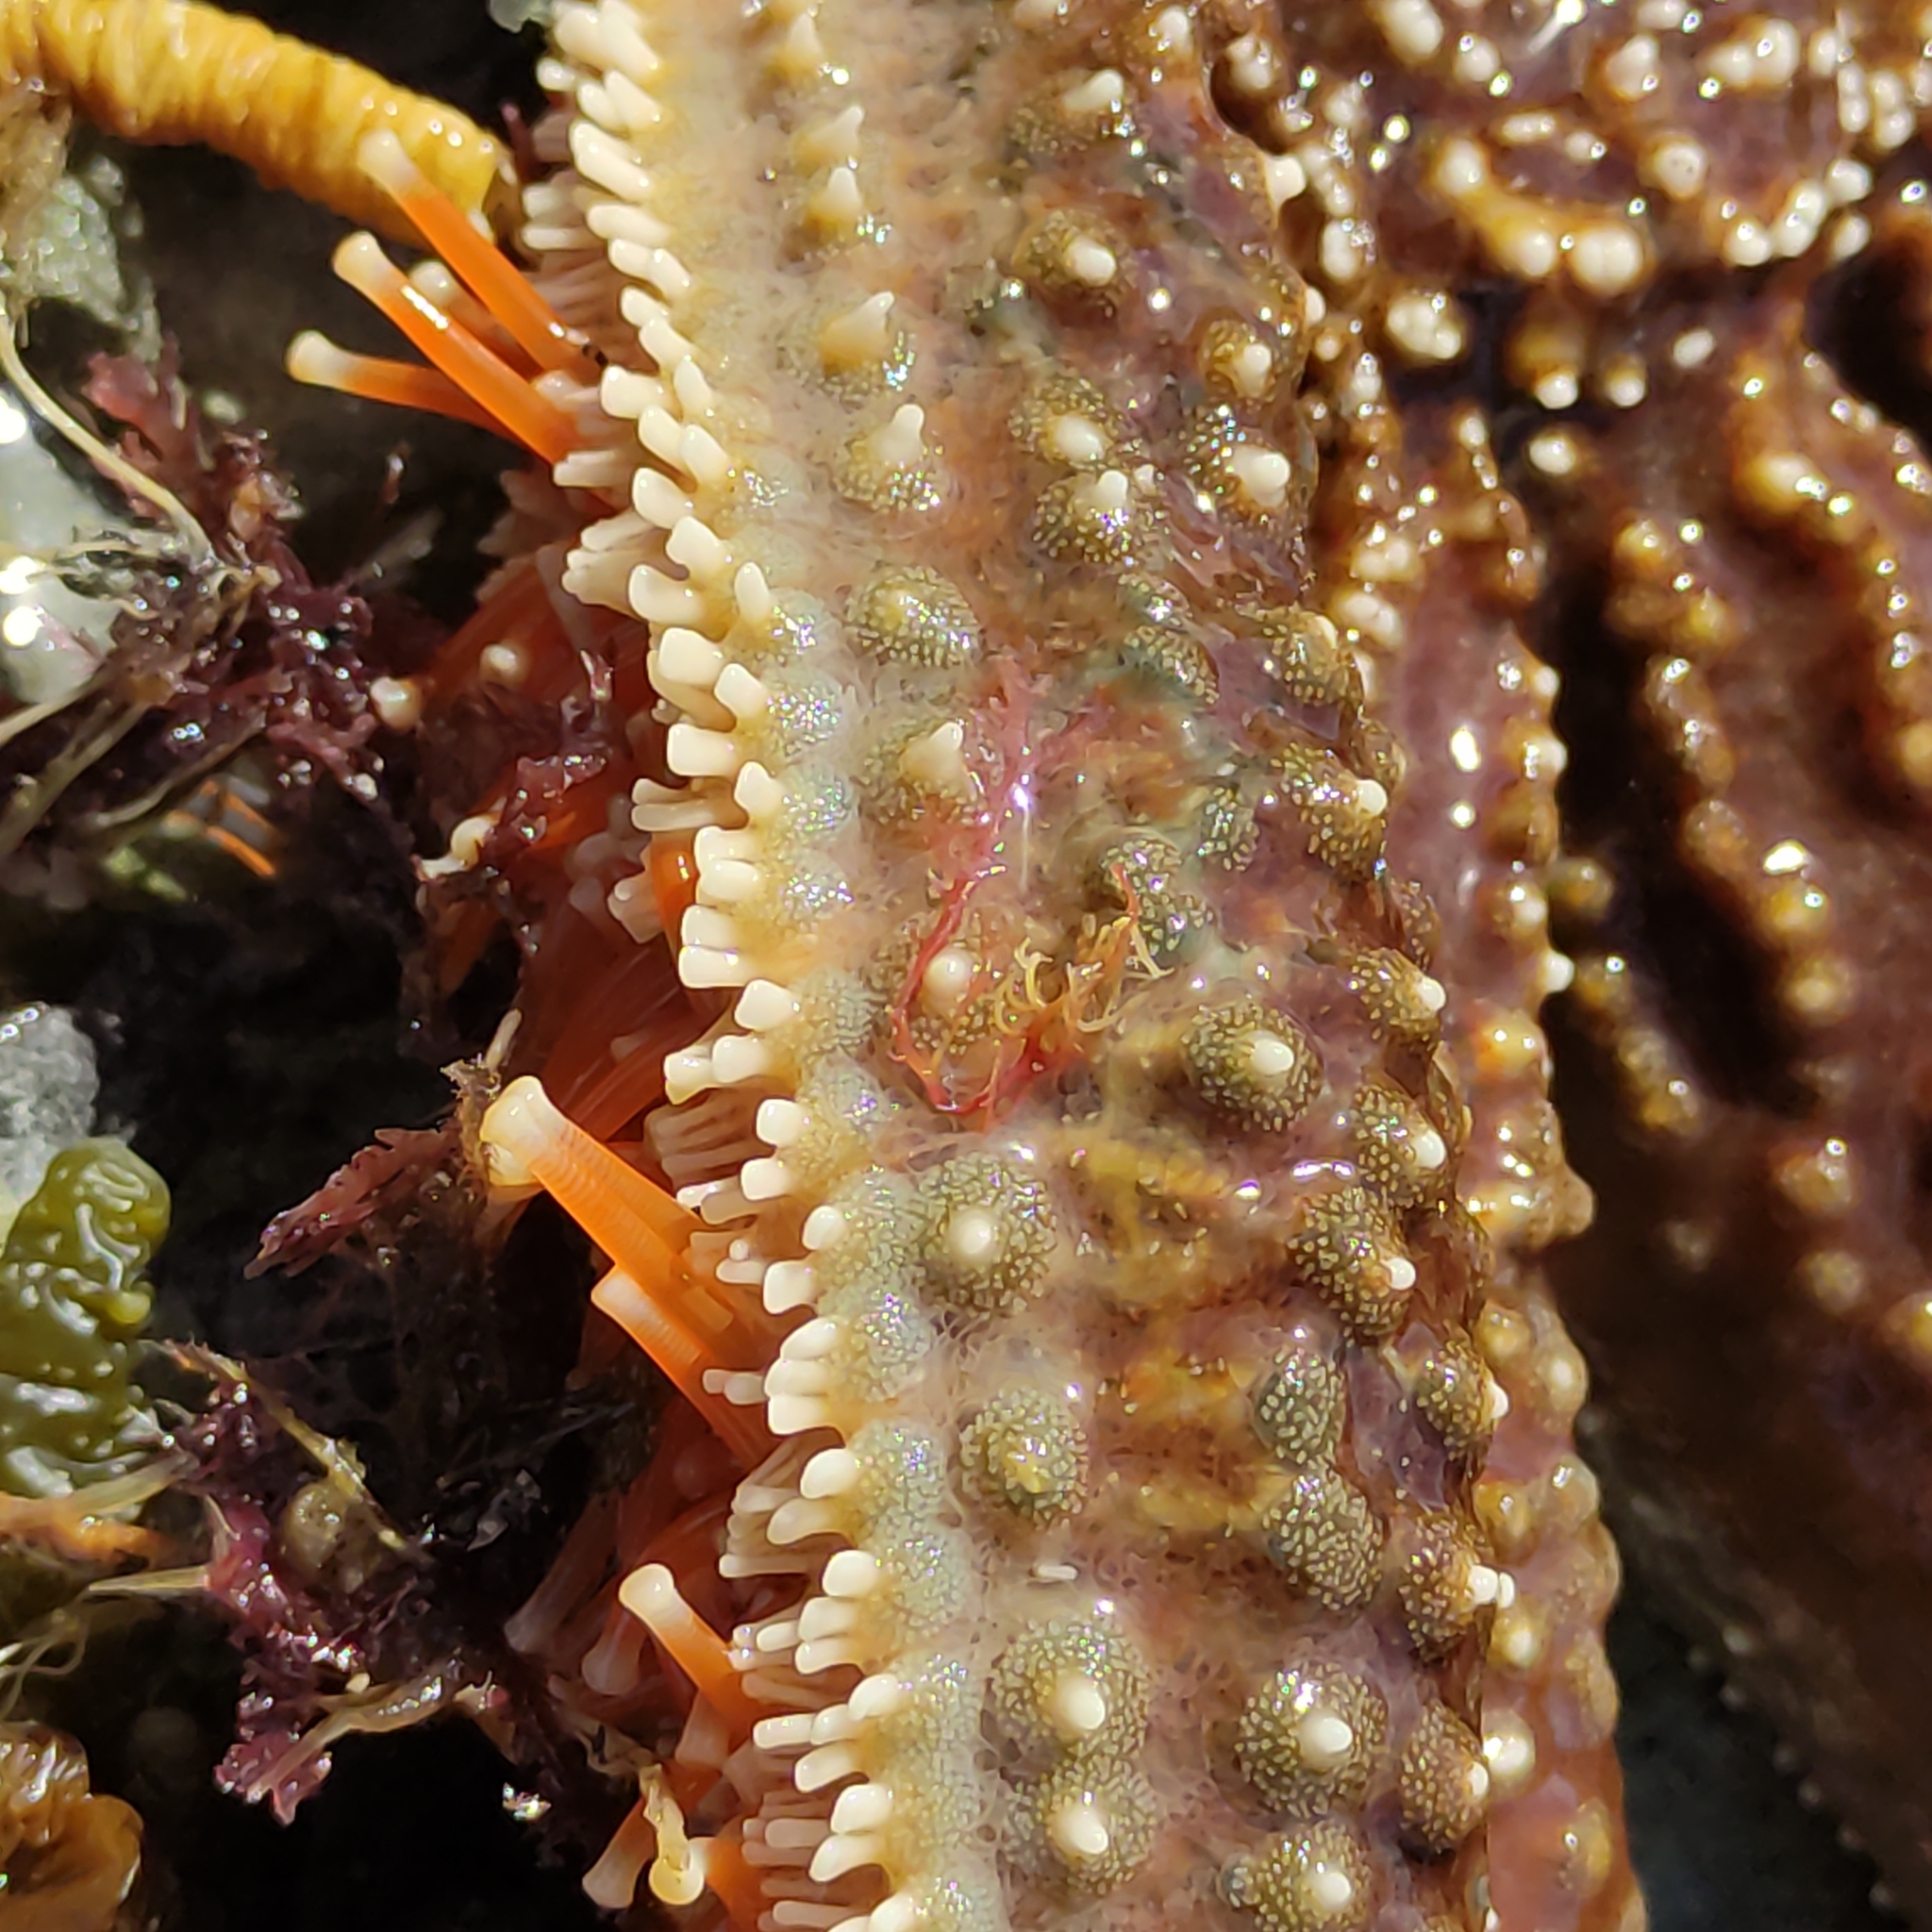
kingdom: Animalia
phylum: Echinodermata
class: Asteroidea
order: Forcipulatida
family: Asteriidae
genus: Astrostole
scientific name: Astrostole scabra
